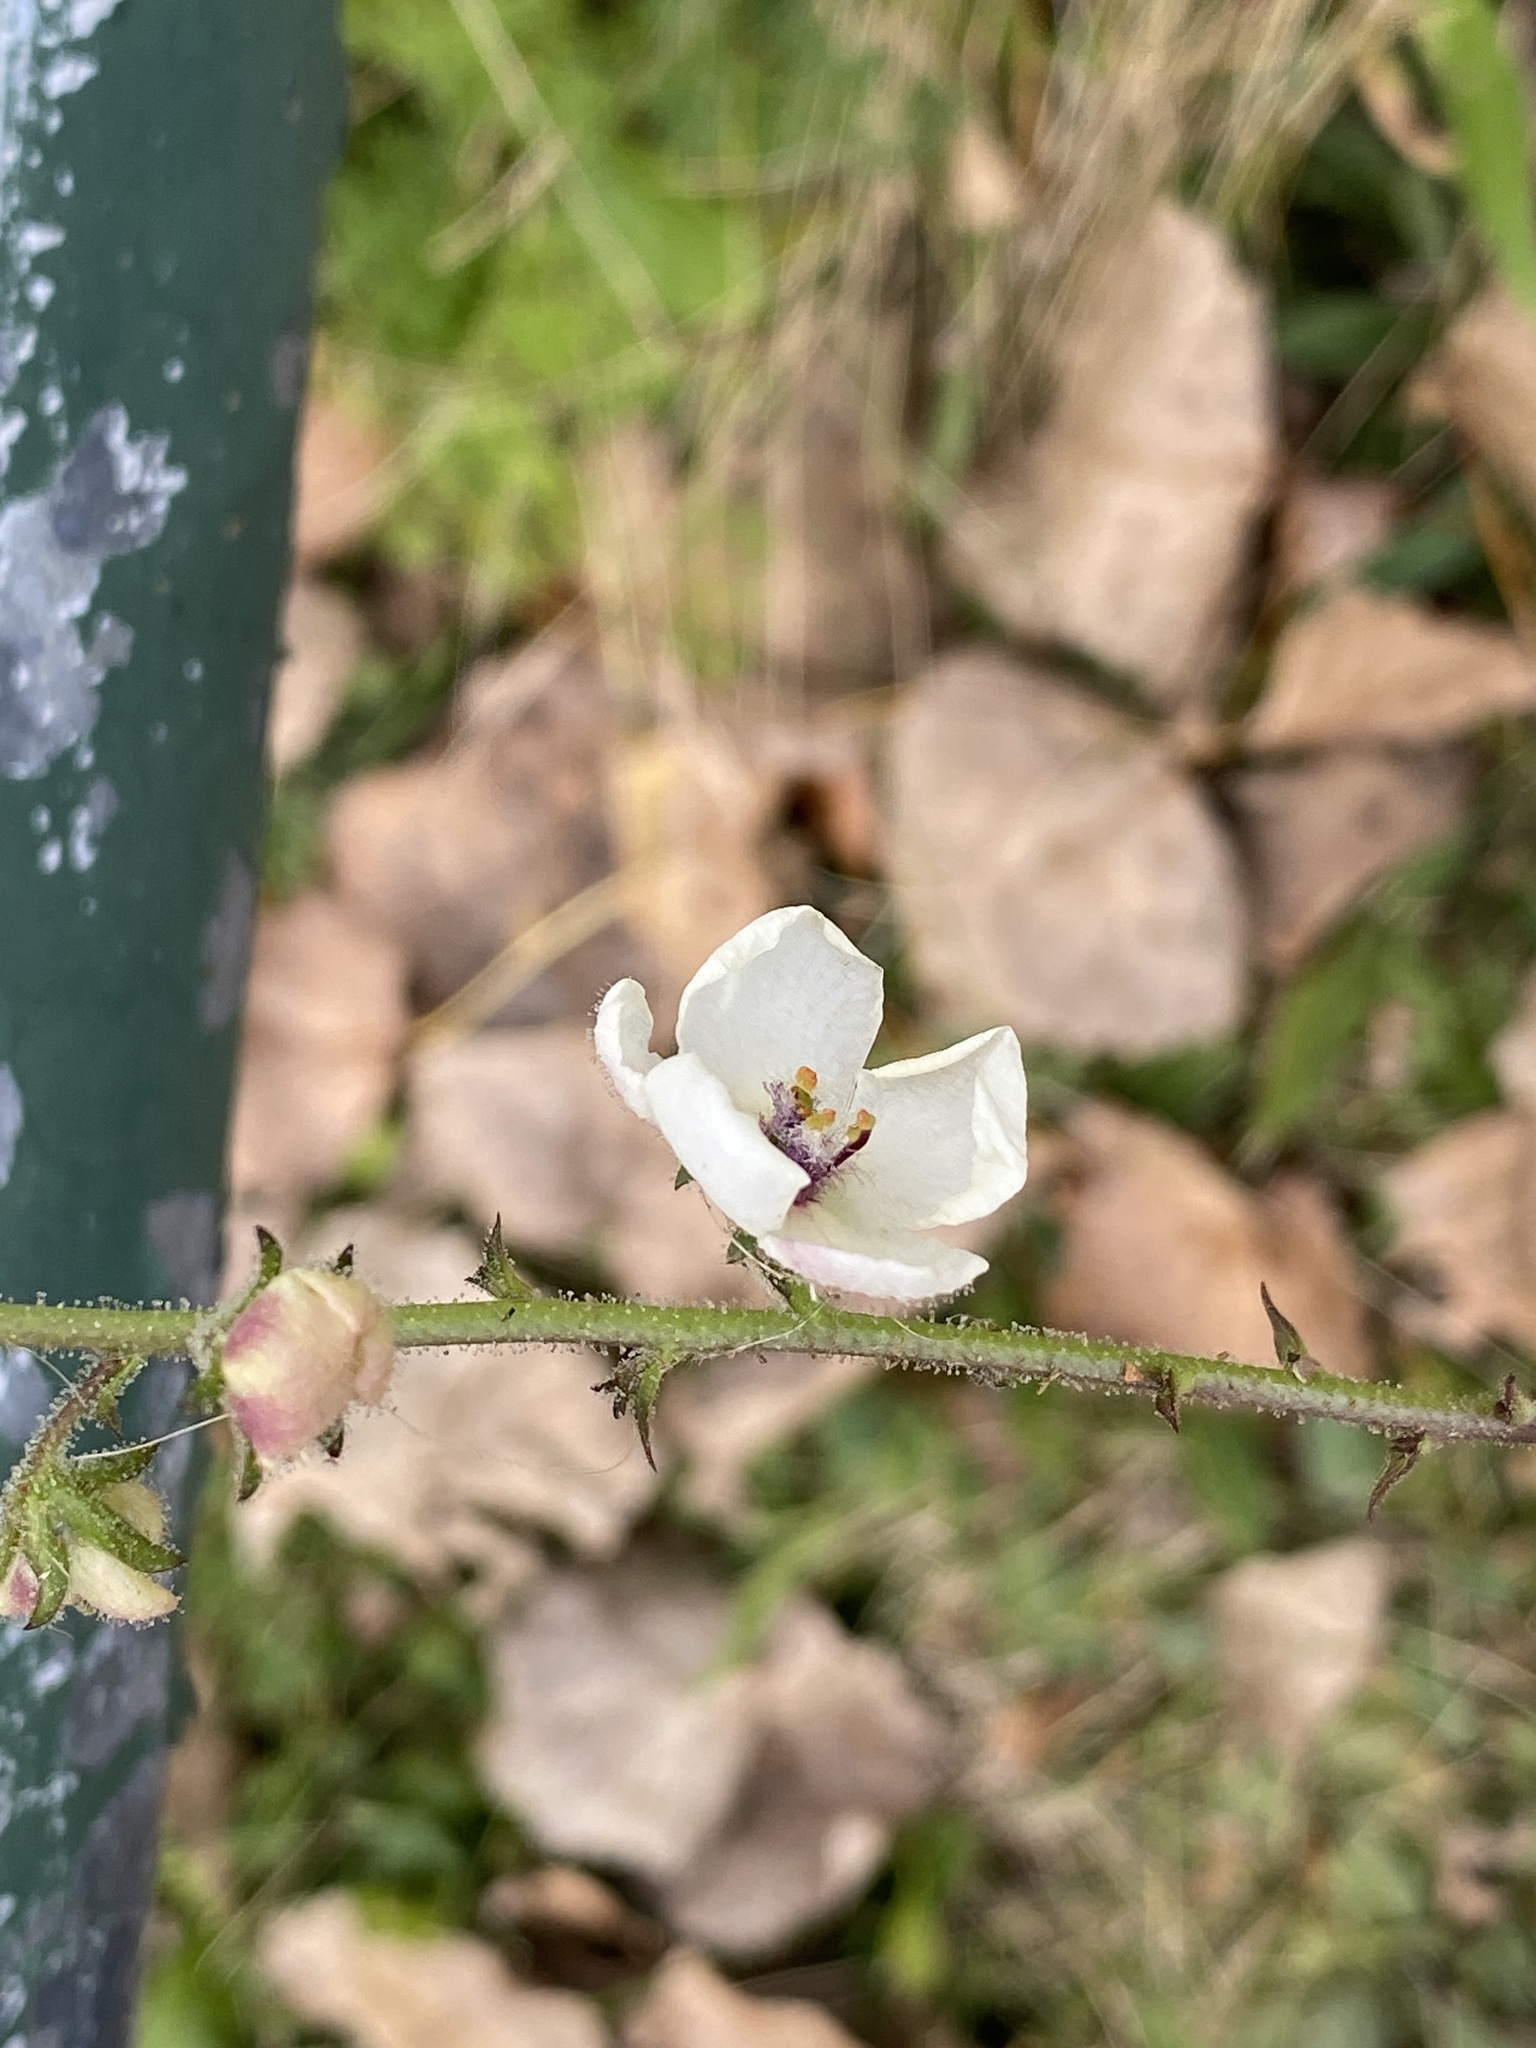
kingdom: Plantae
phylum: Tracheophyta
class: Magnoliopsida
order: Lamiales
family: Scrophulariaceae
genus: Verbascum
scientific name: Verbascum blattaria
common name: Moth mullein
